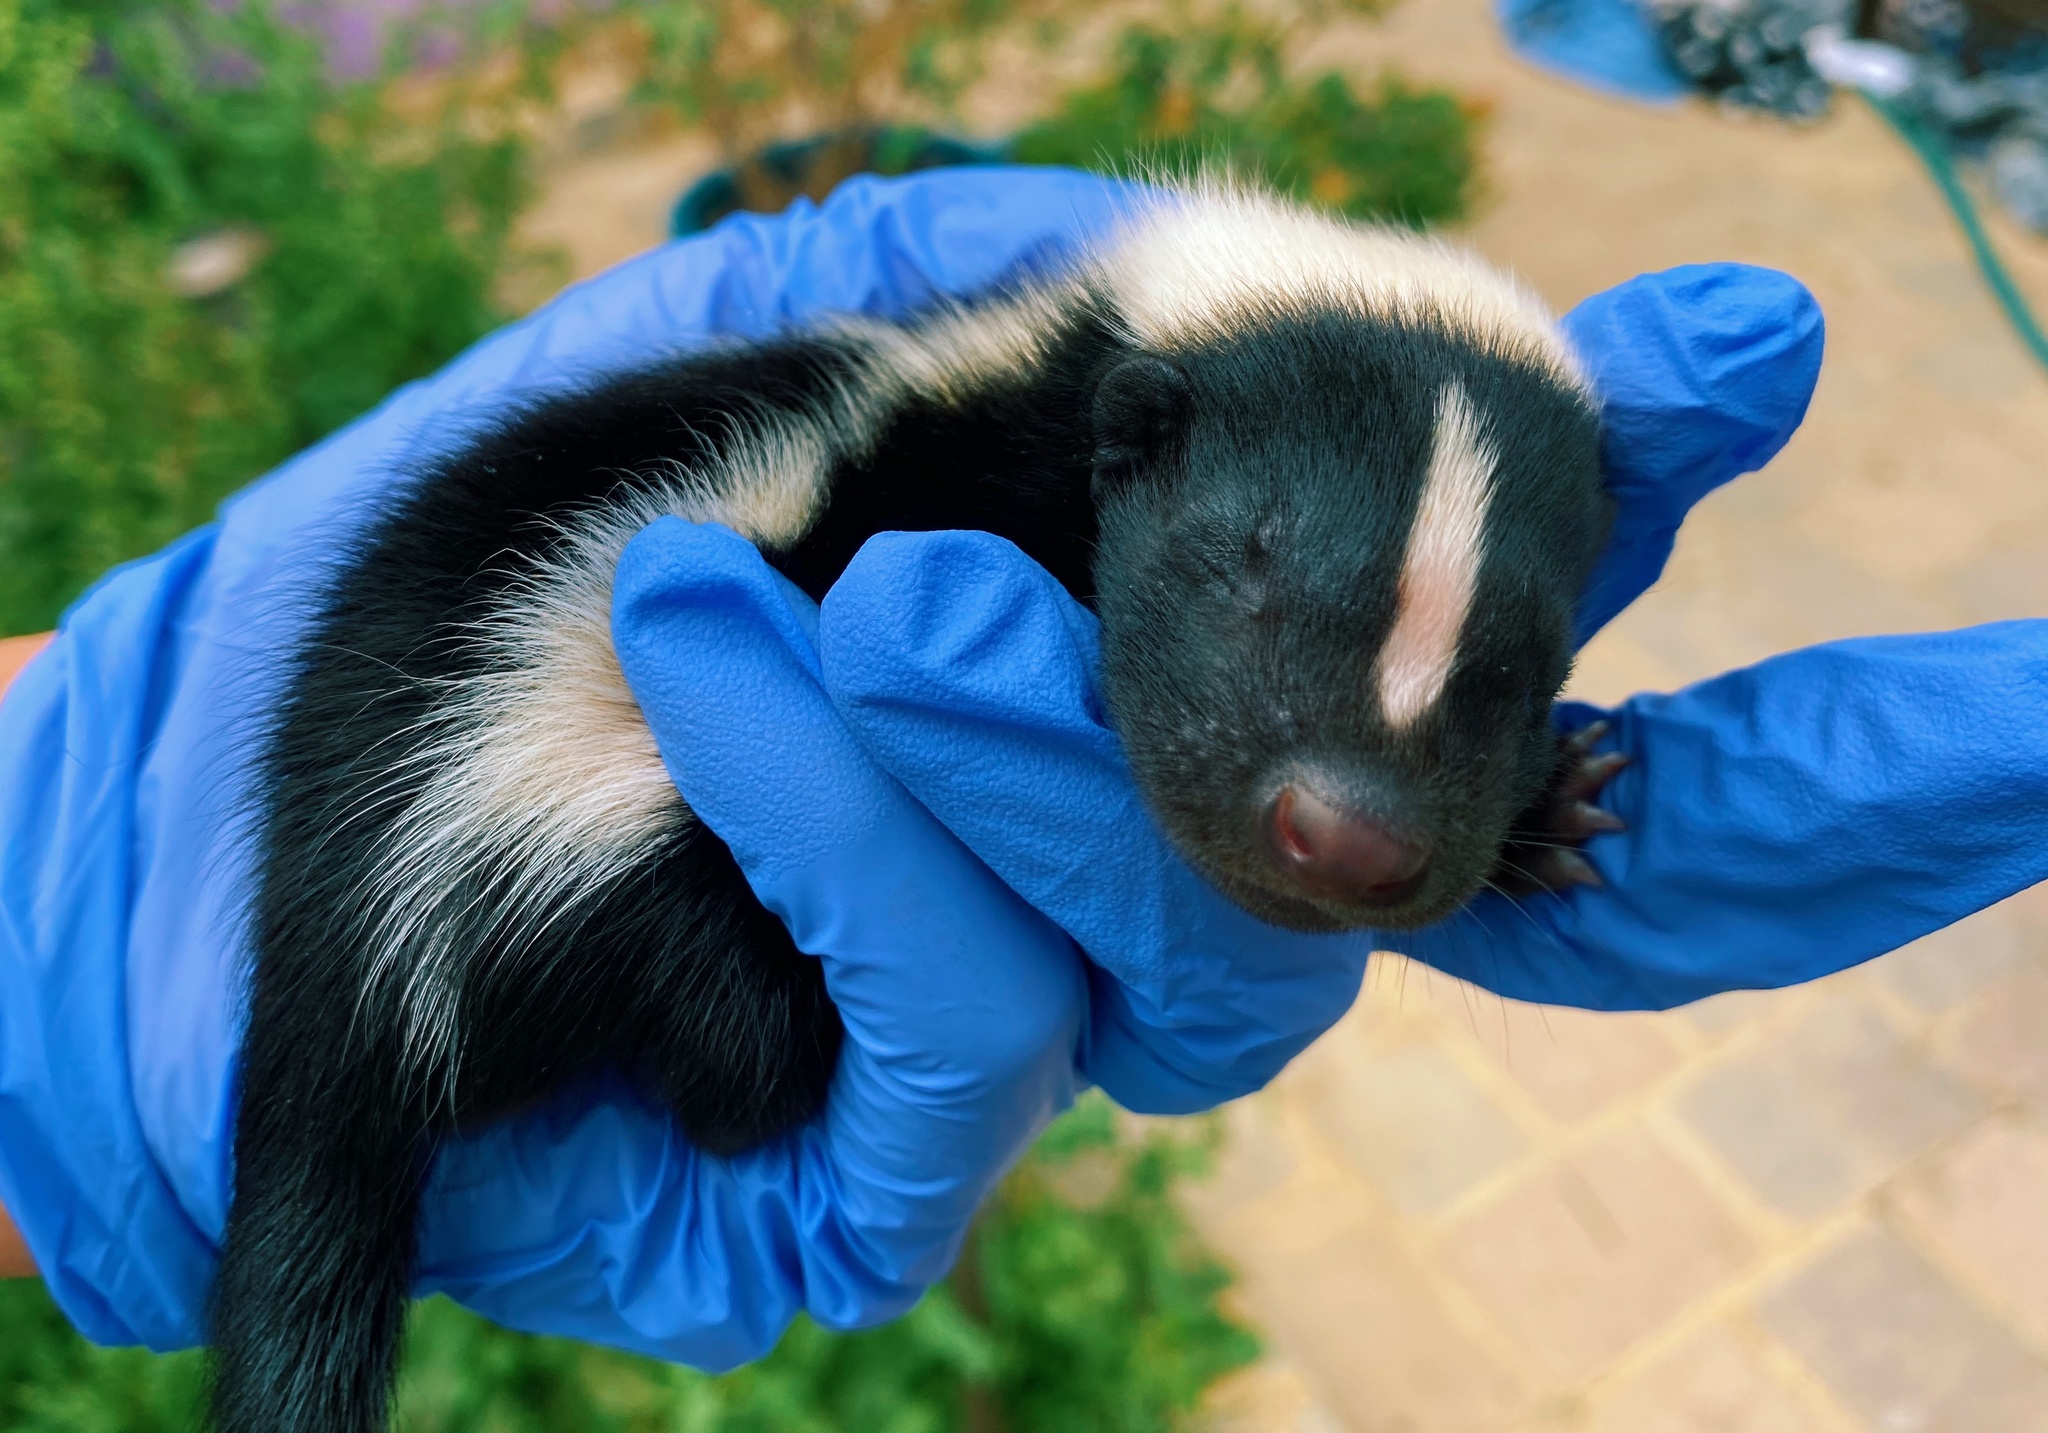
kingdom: Animalia
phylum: Chordata
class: Mammalia
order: Carnivora
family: Mephitidae
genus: Mephitis
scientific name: Mephitis mephitis
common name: Striped skunk
